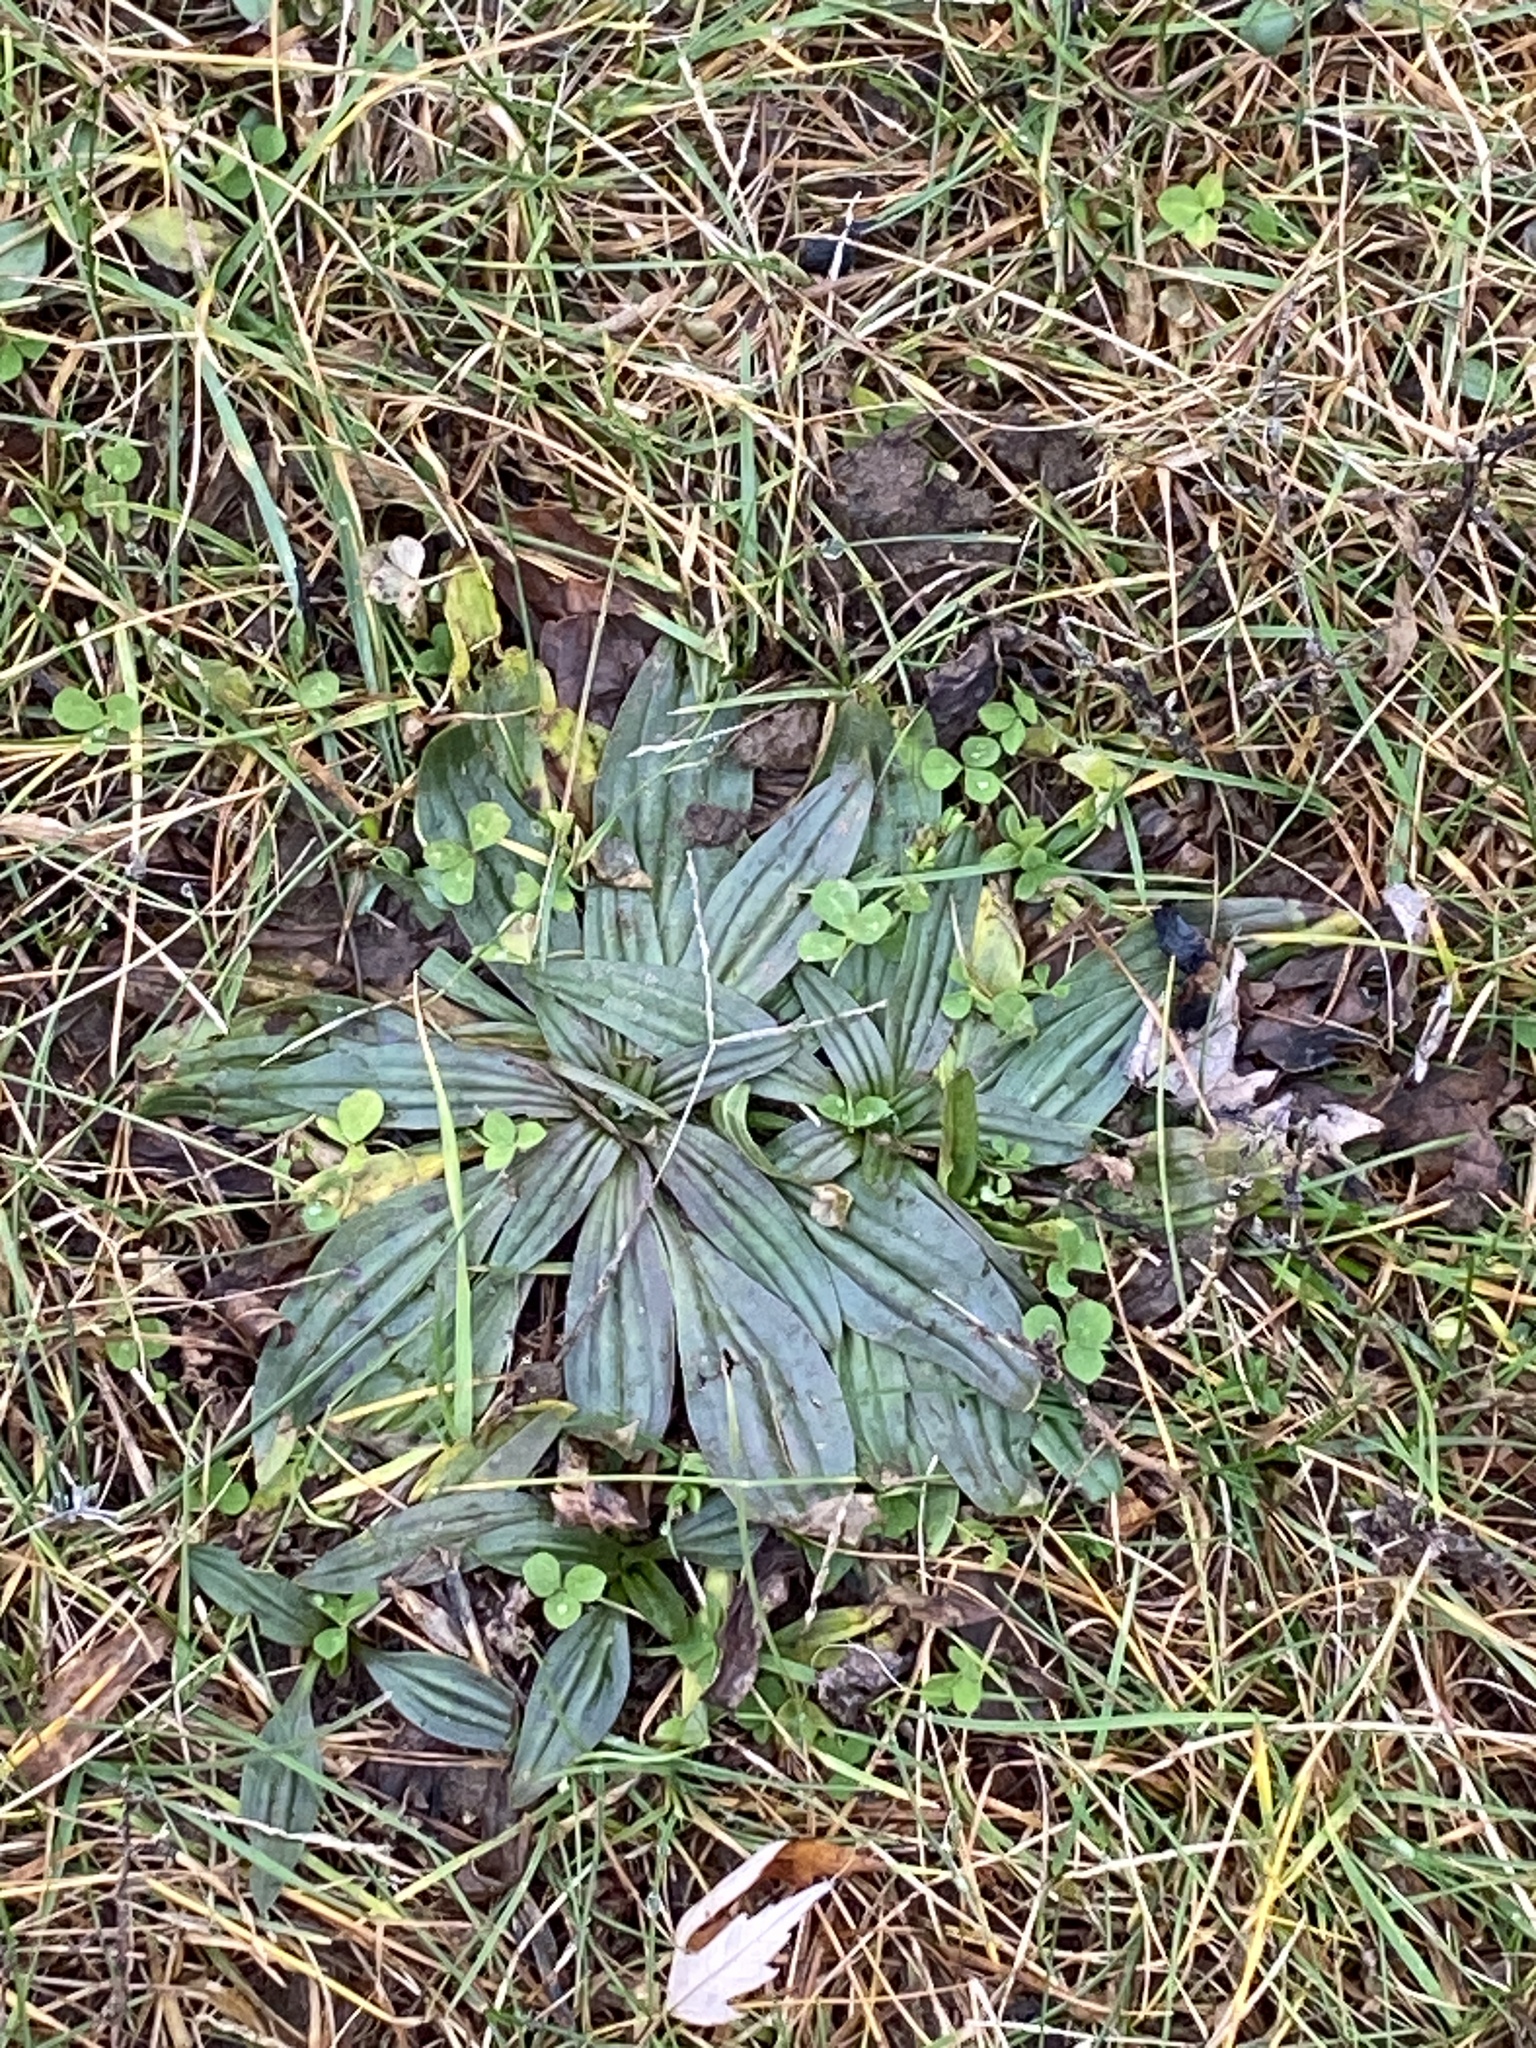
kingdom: Plantae
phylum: Tracheophyta
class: Magnoliopsida
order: Lamiales
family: Plantaginaceae
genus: Plantago
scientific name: Plantago lanceolata
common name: Ribwort plantain
